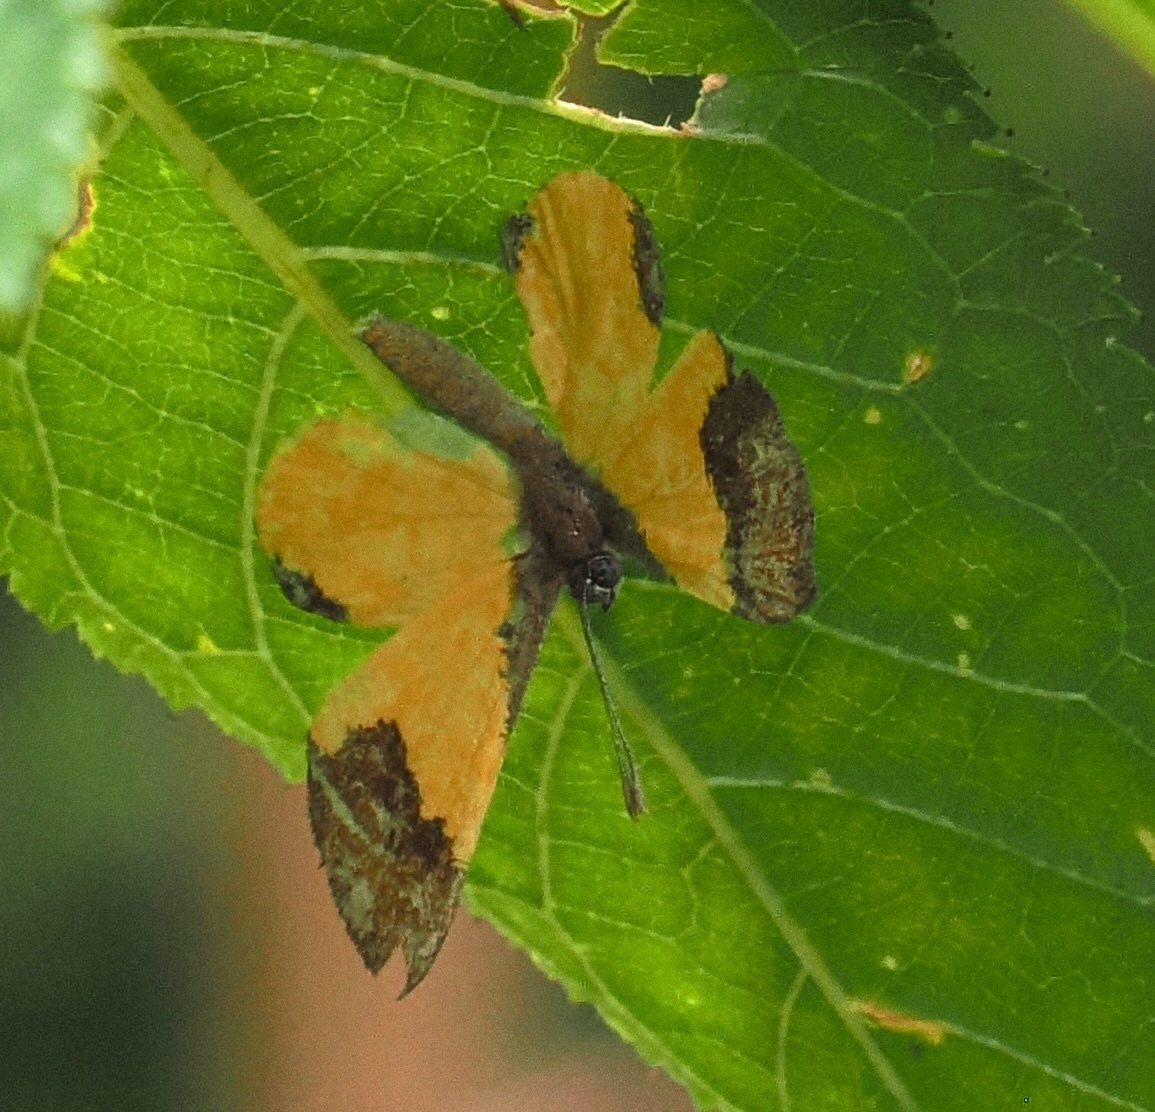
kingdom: Animalia
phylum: Arthropoda
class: Insecta
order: Lepidoptera
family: Riodinidae
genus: Echenais
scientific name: Echenais Adelotypa bolena
